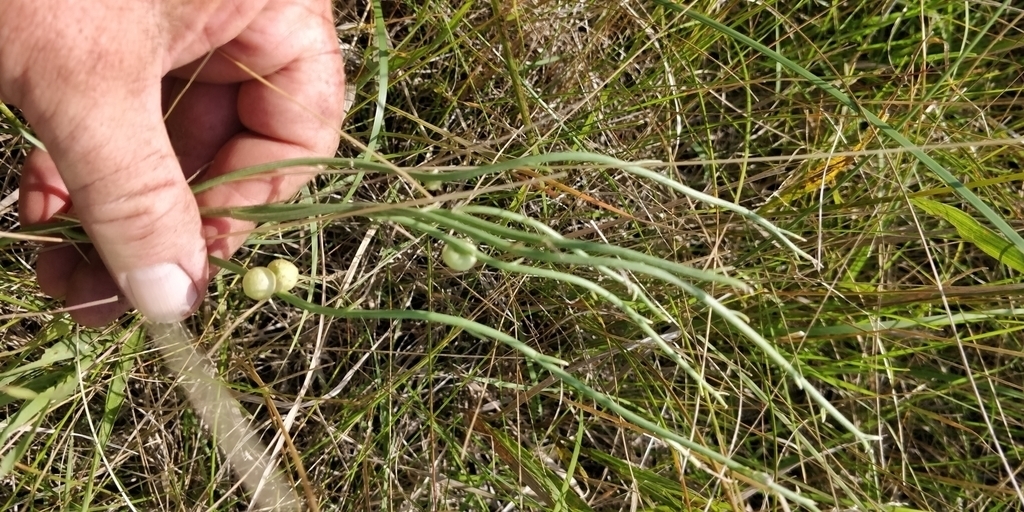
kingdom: Animalia
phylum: Arthropoda
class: Insecta
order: Hymenoptera
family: Cynipidae
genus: Antistrophus
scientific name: Antistrophus
